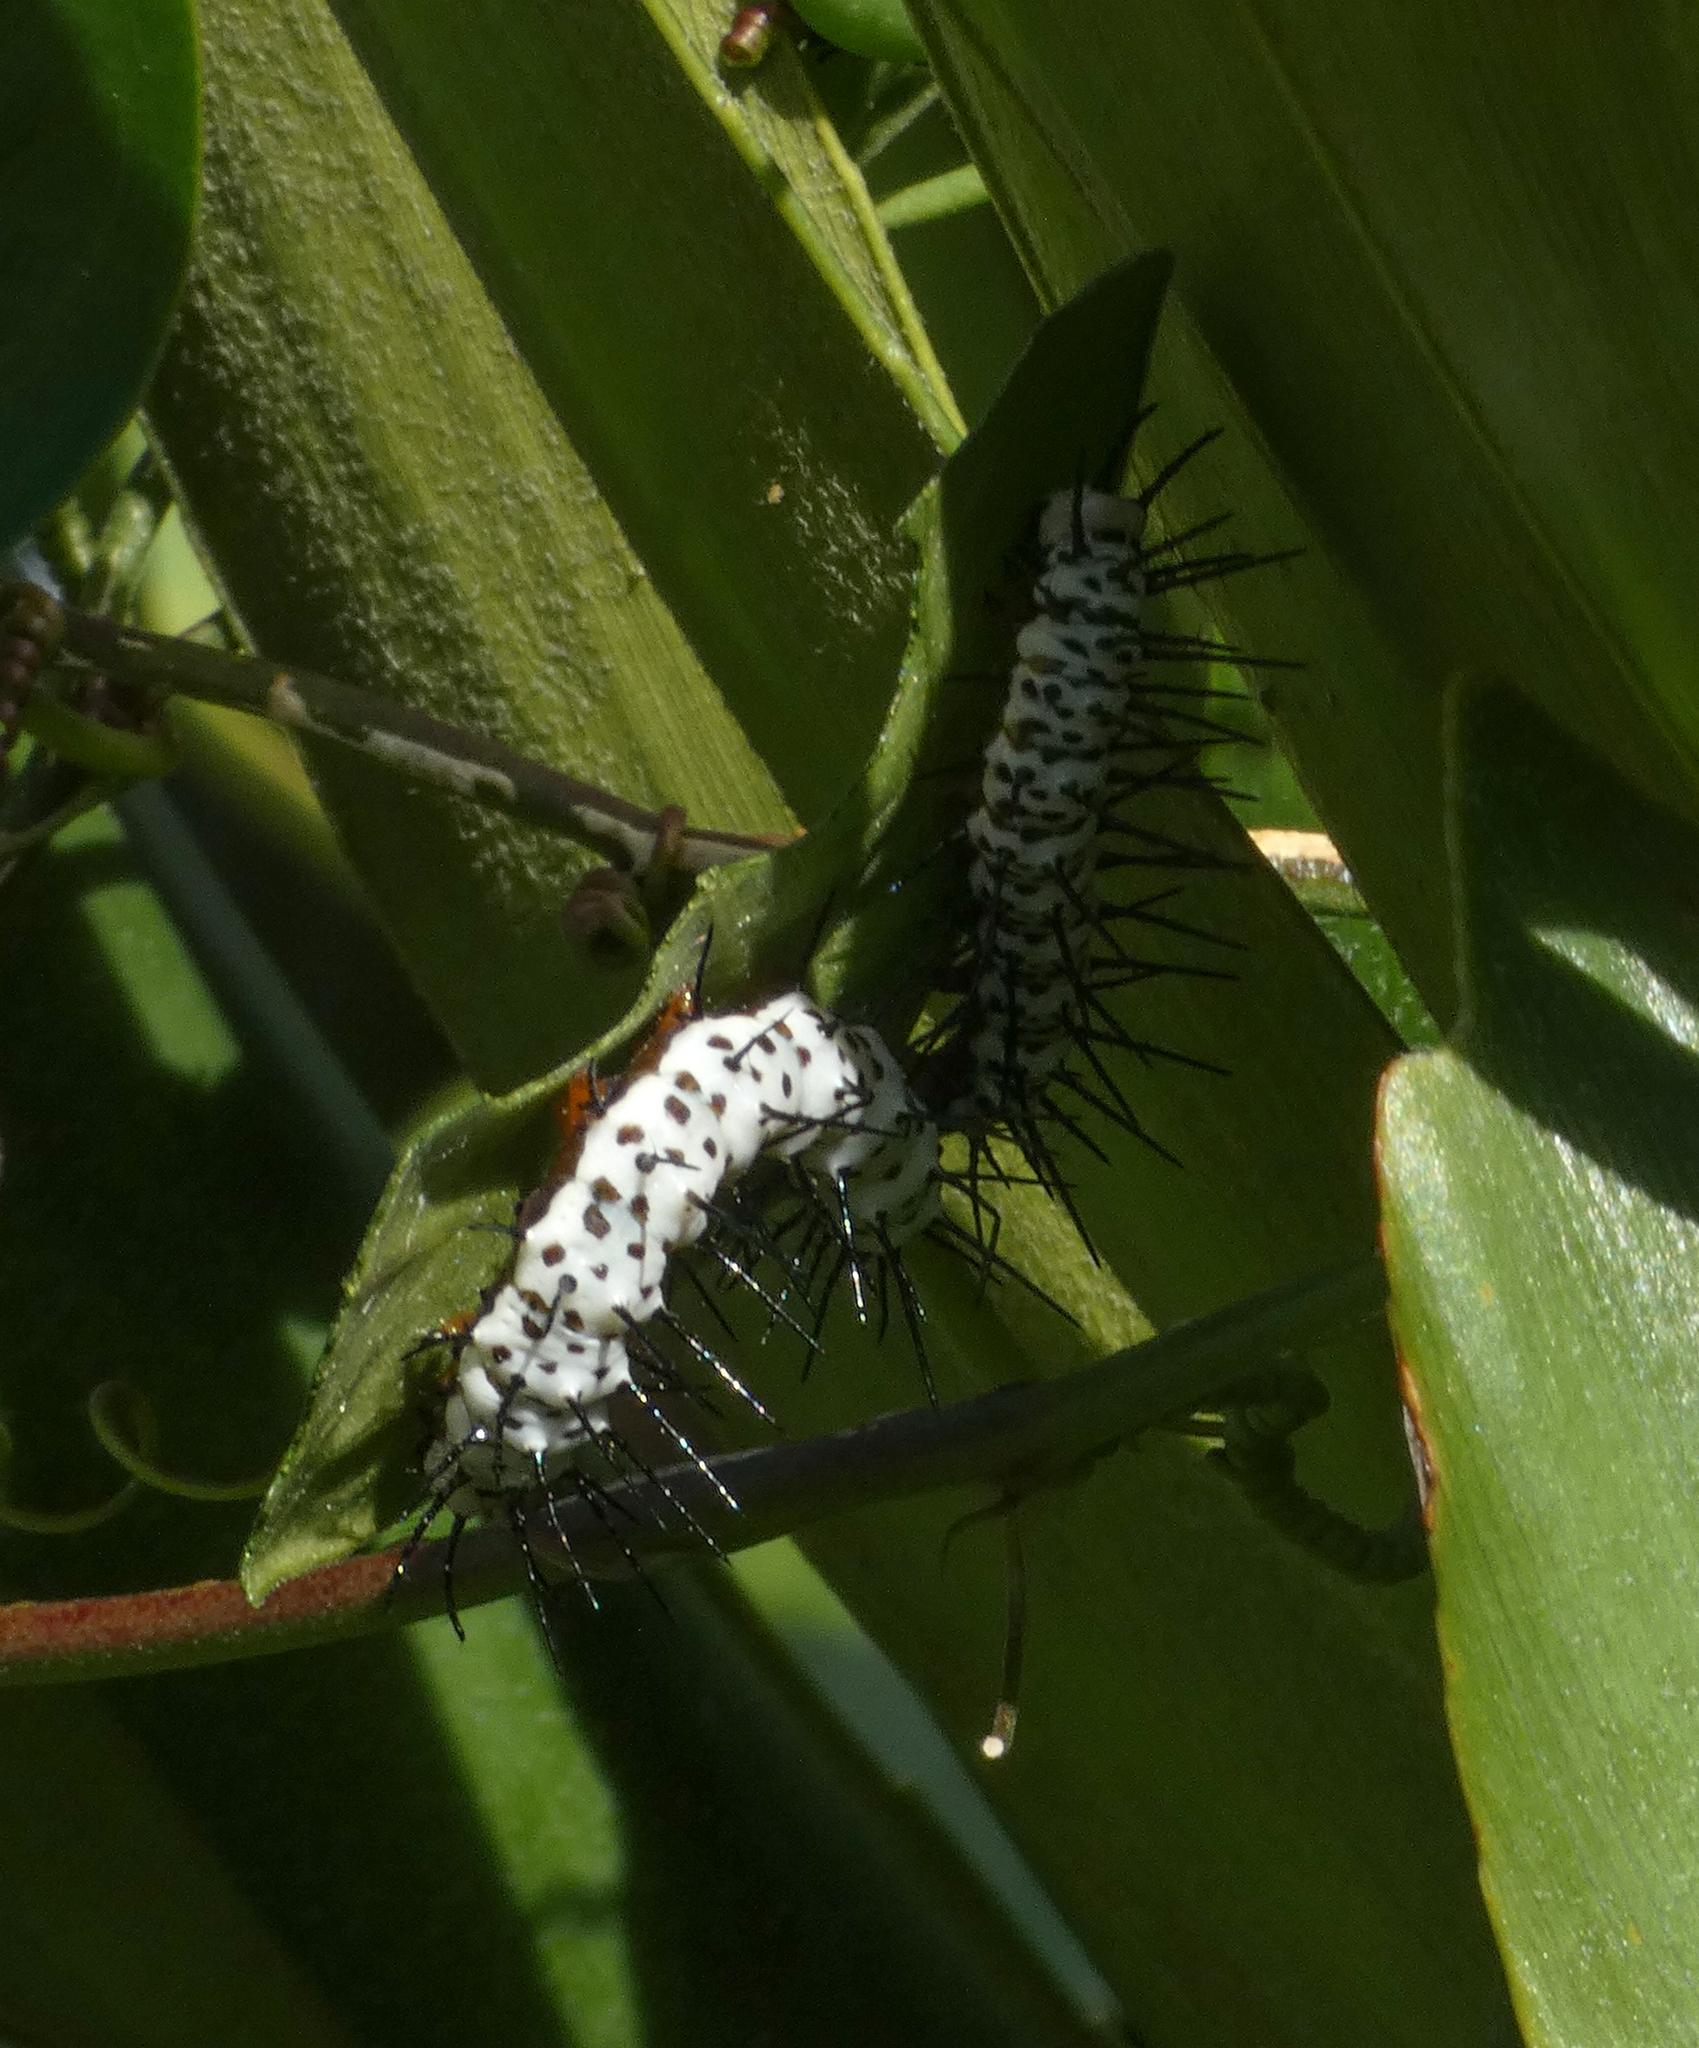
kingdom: Animalia
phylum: Arthropoda
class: Insecta
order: Lepidoptera
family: Nymphalidae
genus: Heliconius
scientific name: Heliconius charithonia
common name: Zebra long wing
